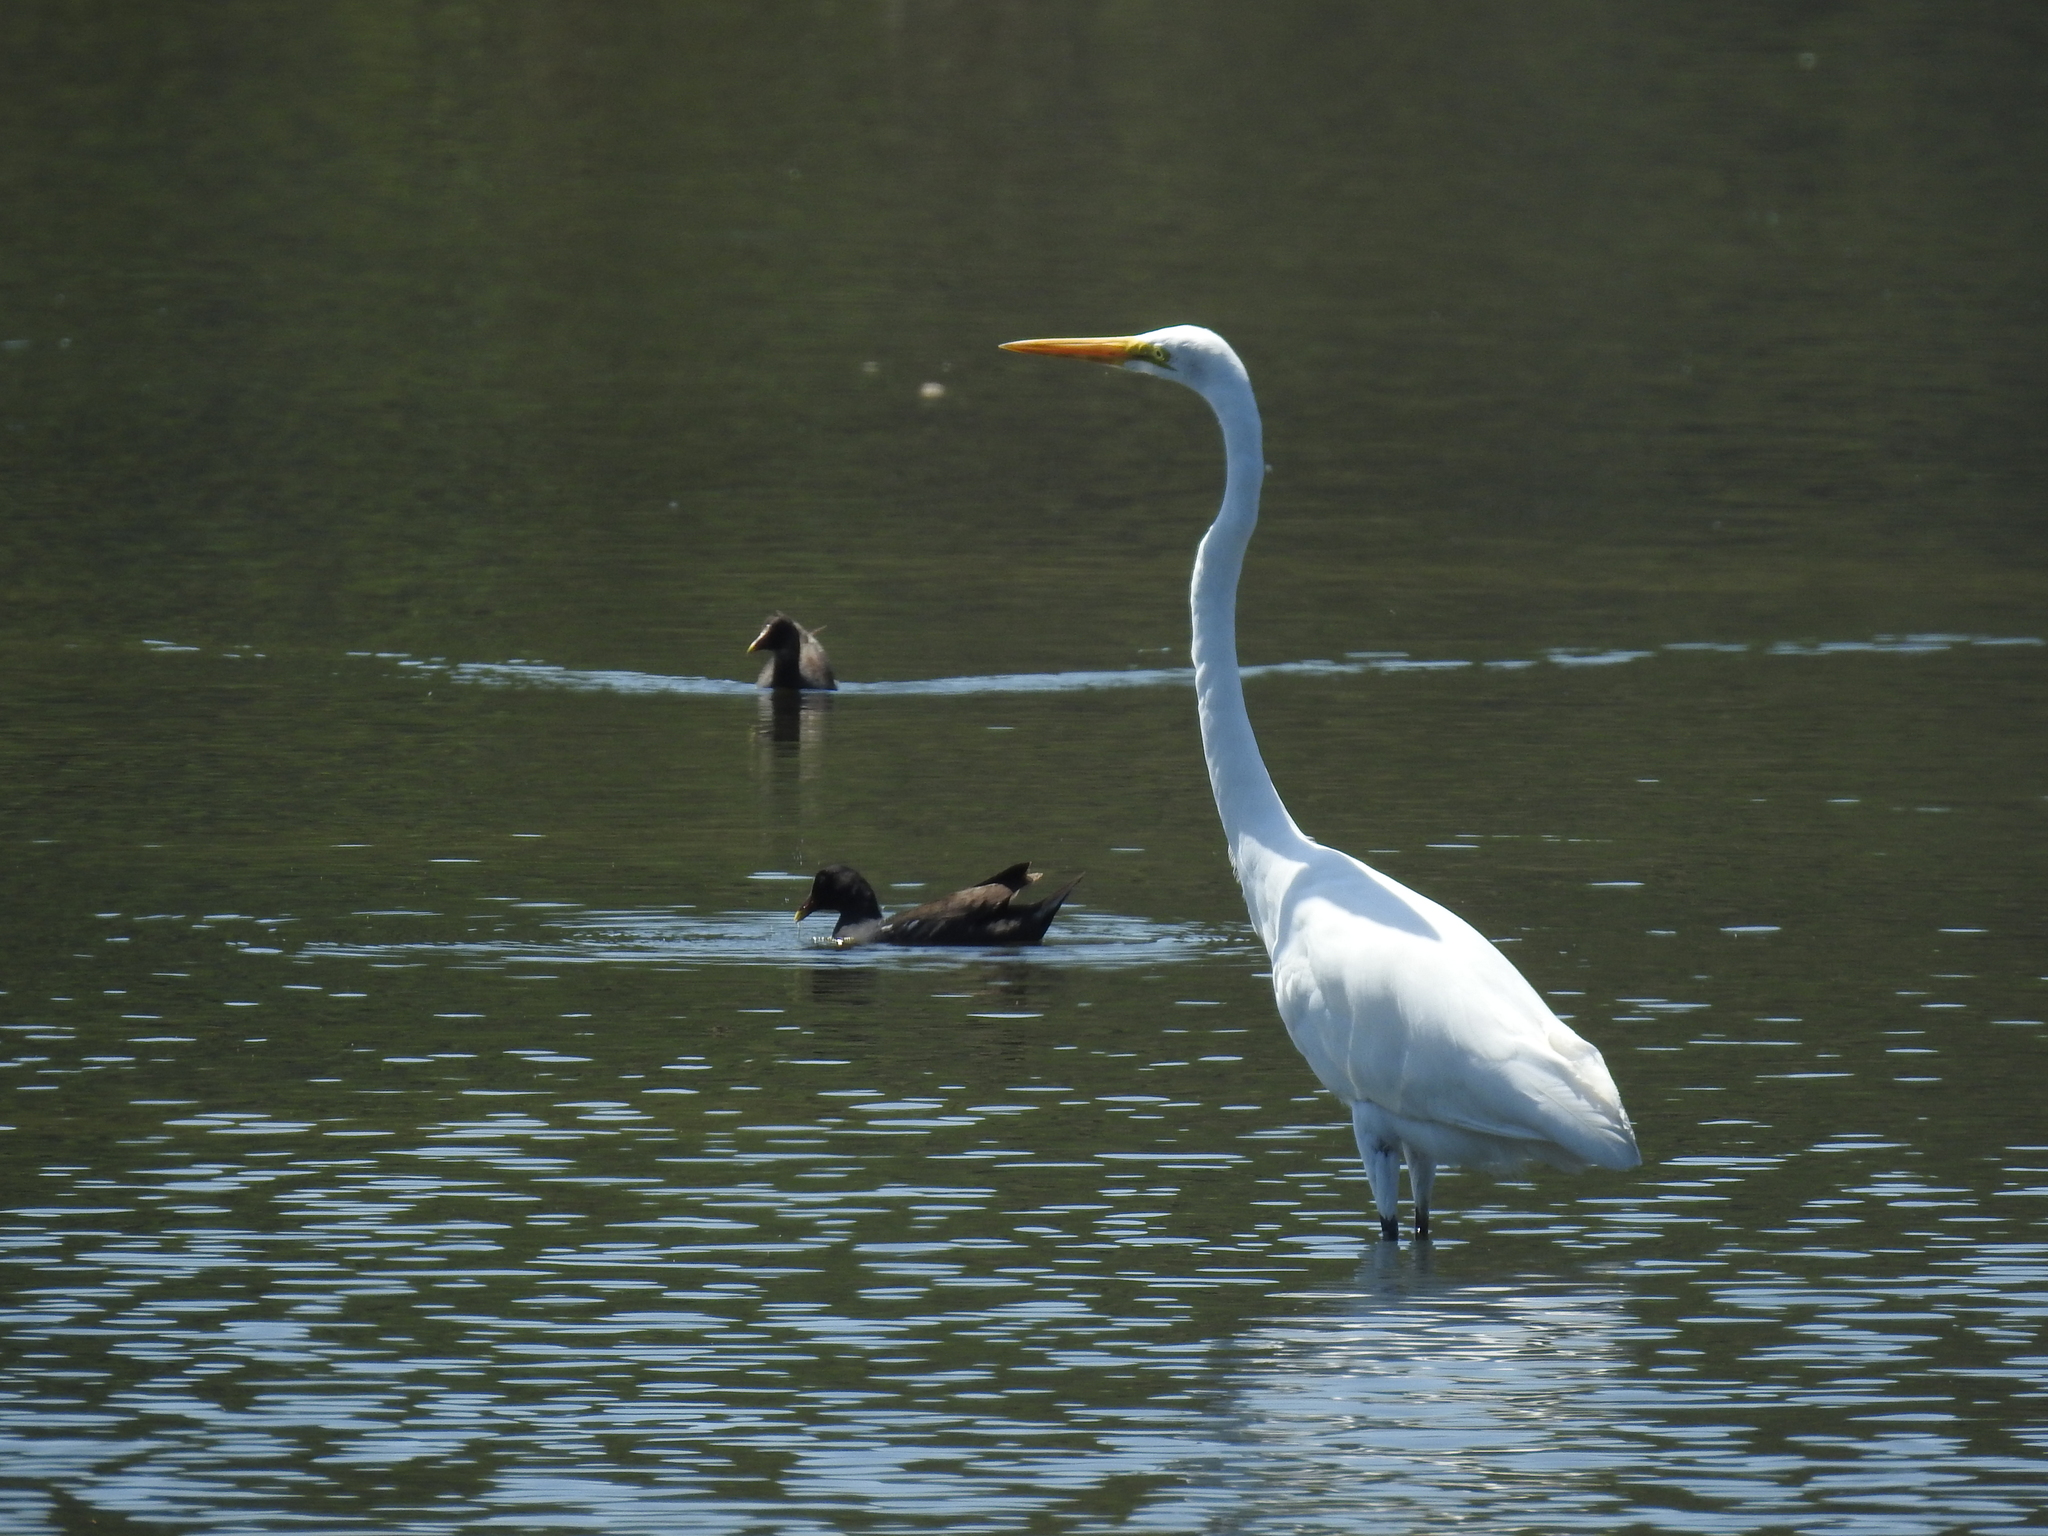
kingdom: Animalia
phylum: Chordata
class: Aves
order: Pelecaniformes
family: Ardeidae
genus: Ardea
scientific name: Ardea alba
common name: Great egret
